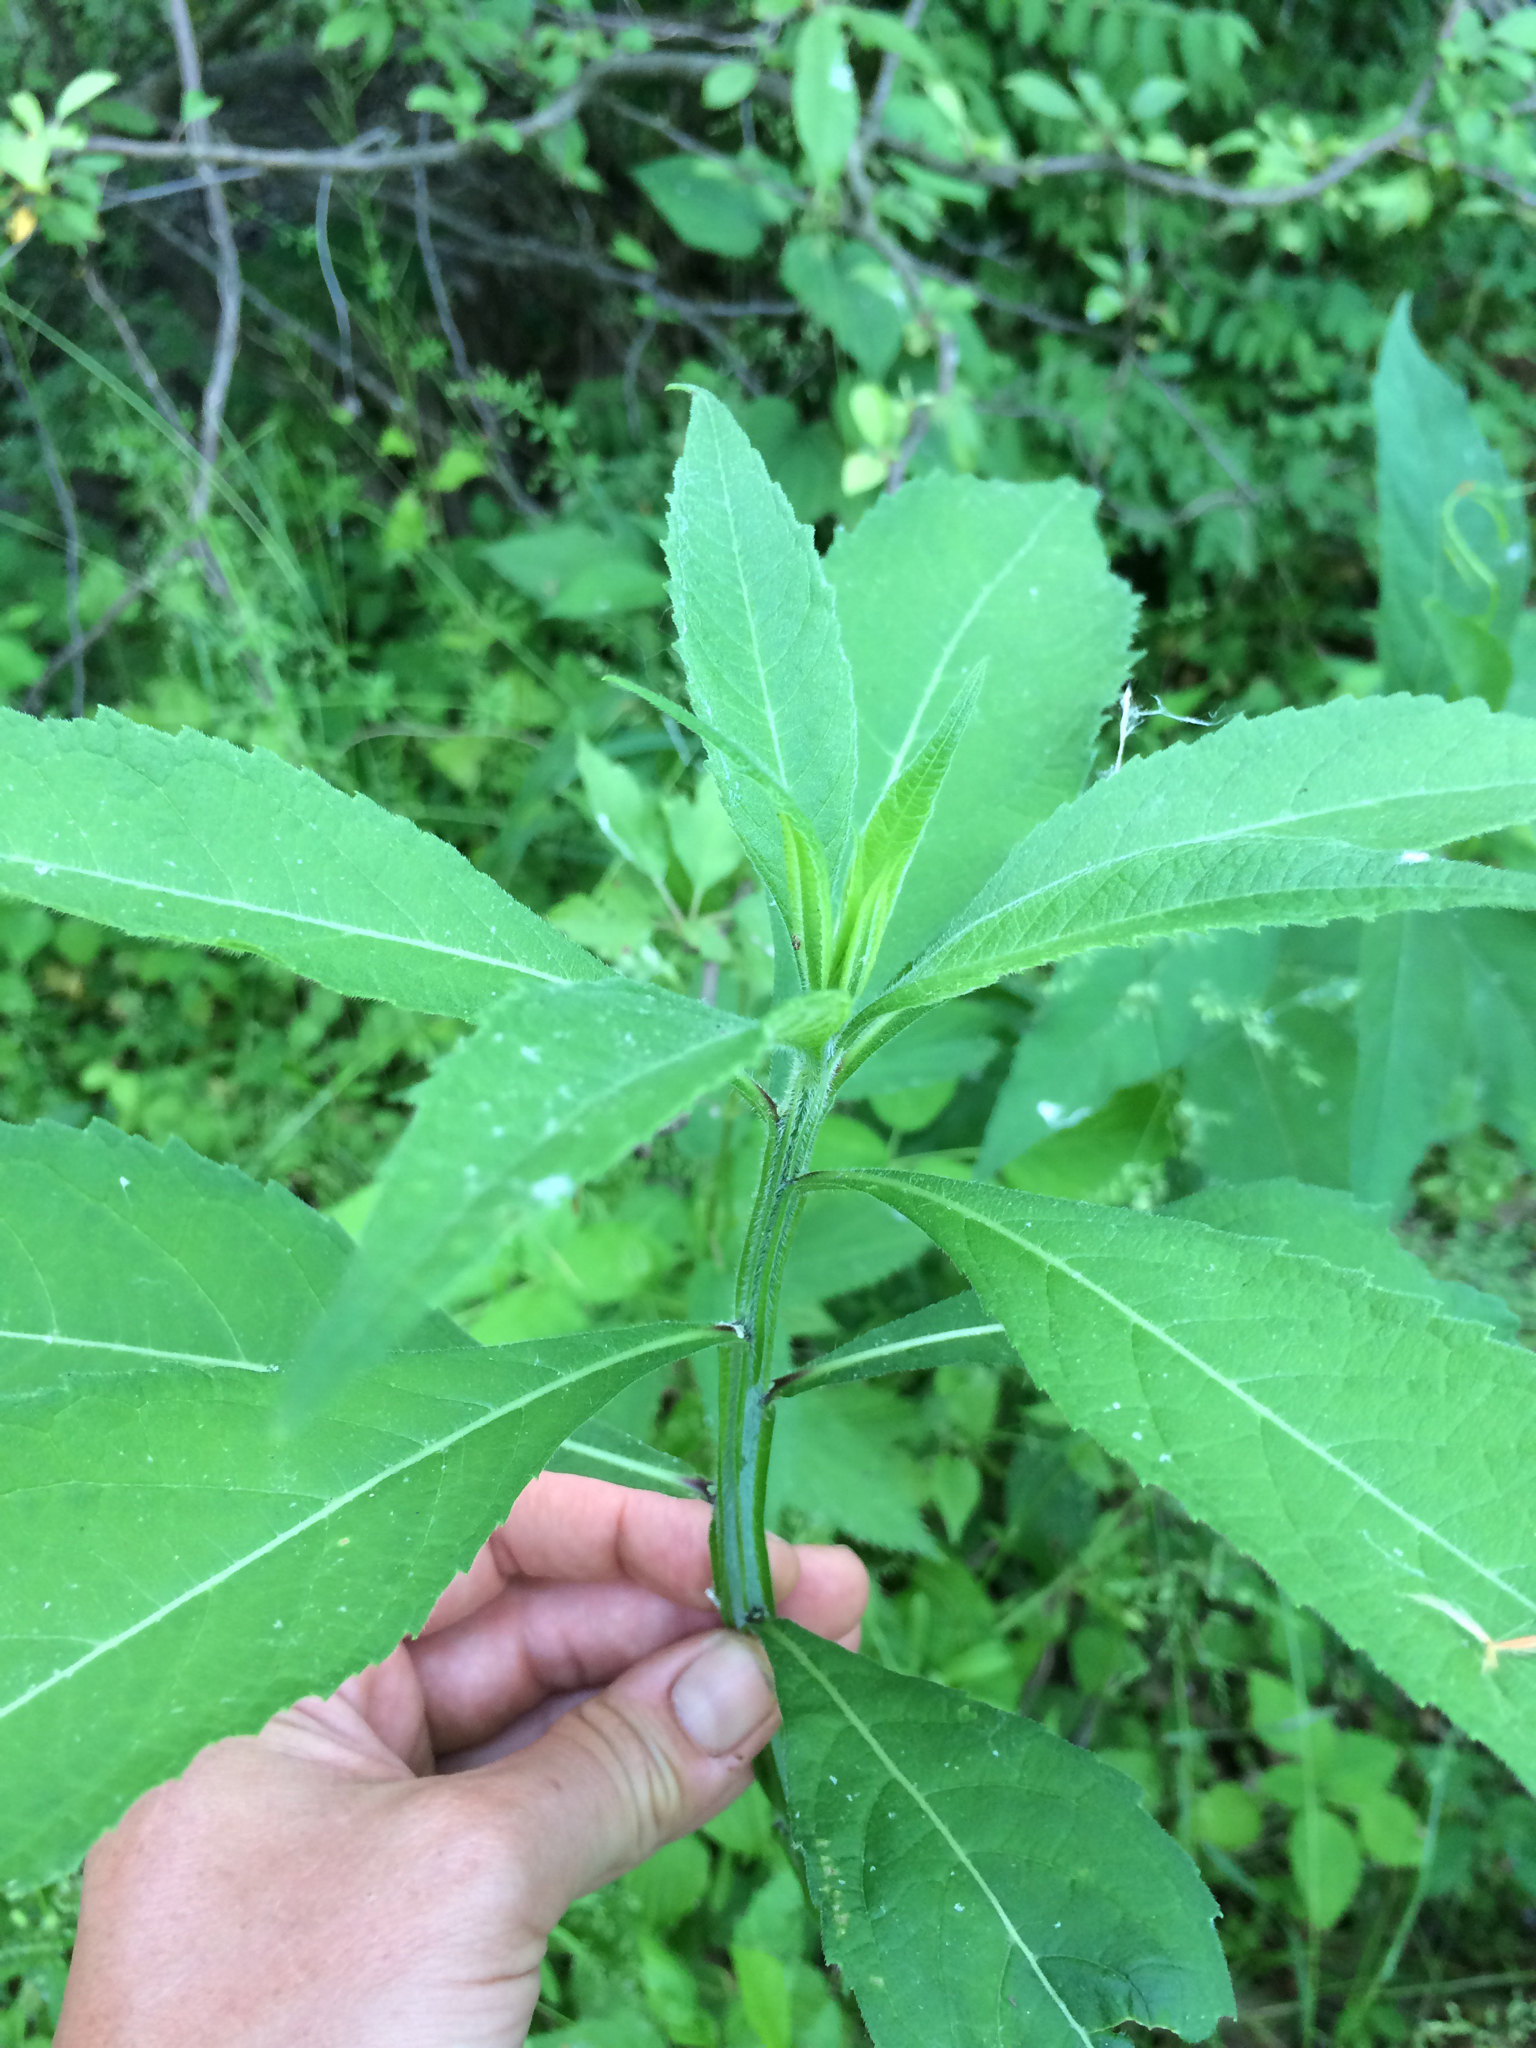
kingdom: Plantae
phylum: Tracheophyta
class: Magnoliopsida
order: Asterales
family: Asteraceae
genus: Verbesina
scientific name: Verbesina alternifolia
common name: Wingstem
